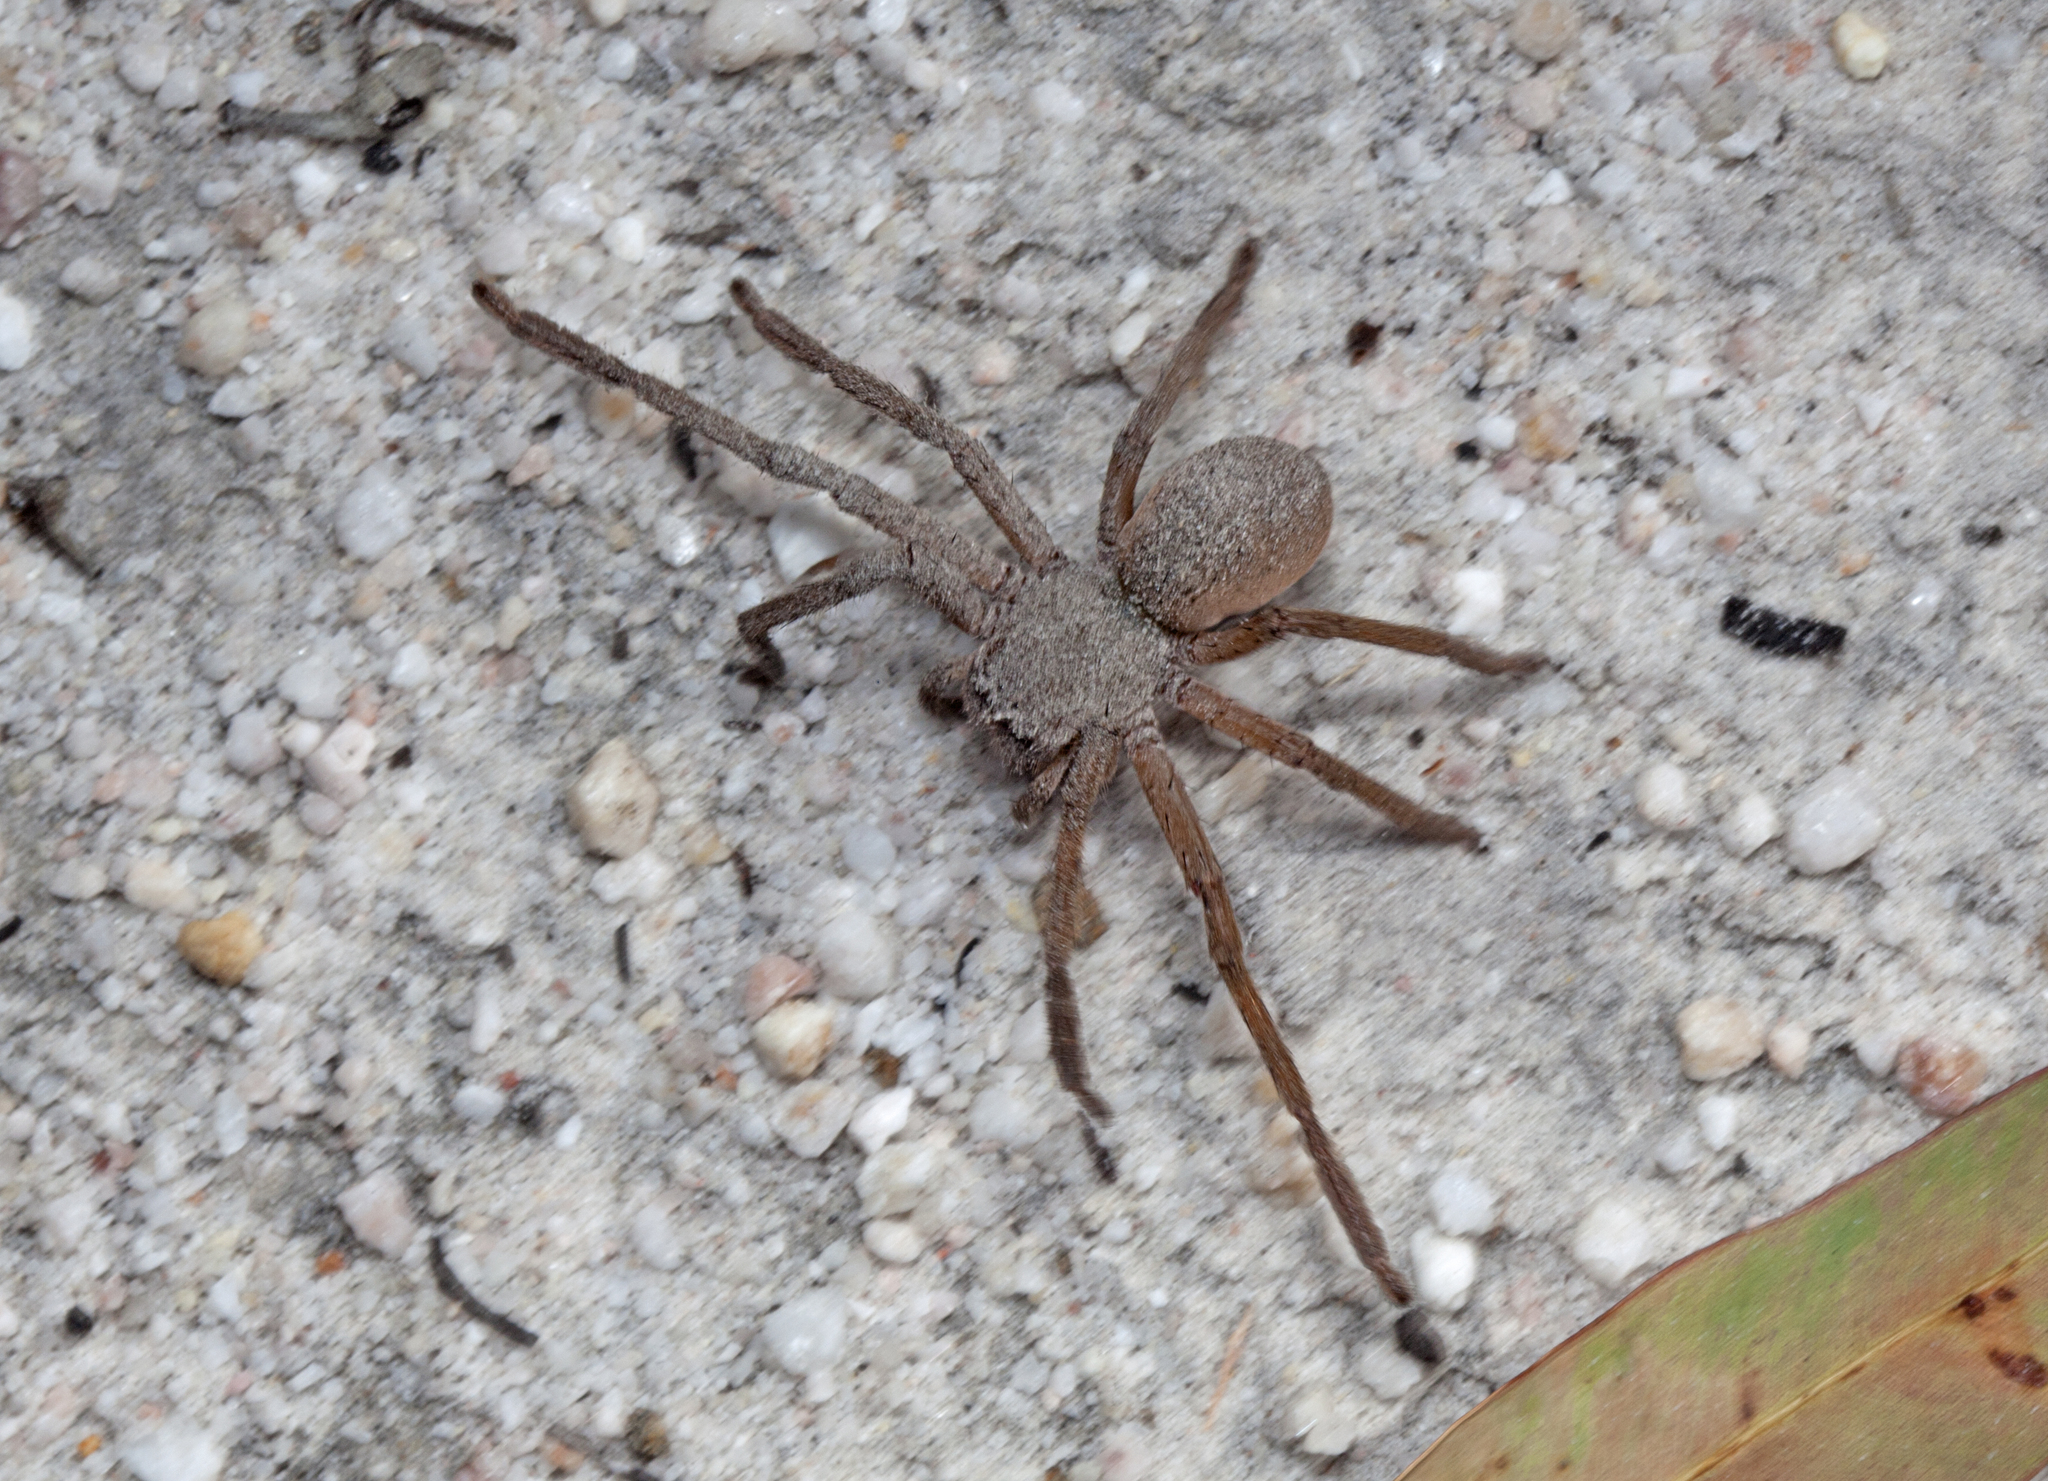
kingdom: Animalia
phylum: Arthropoda
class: Arachnida
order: Araneae
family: Sparassidae
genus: Isopedella
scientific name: Isopedella flavida
